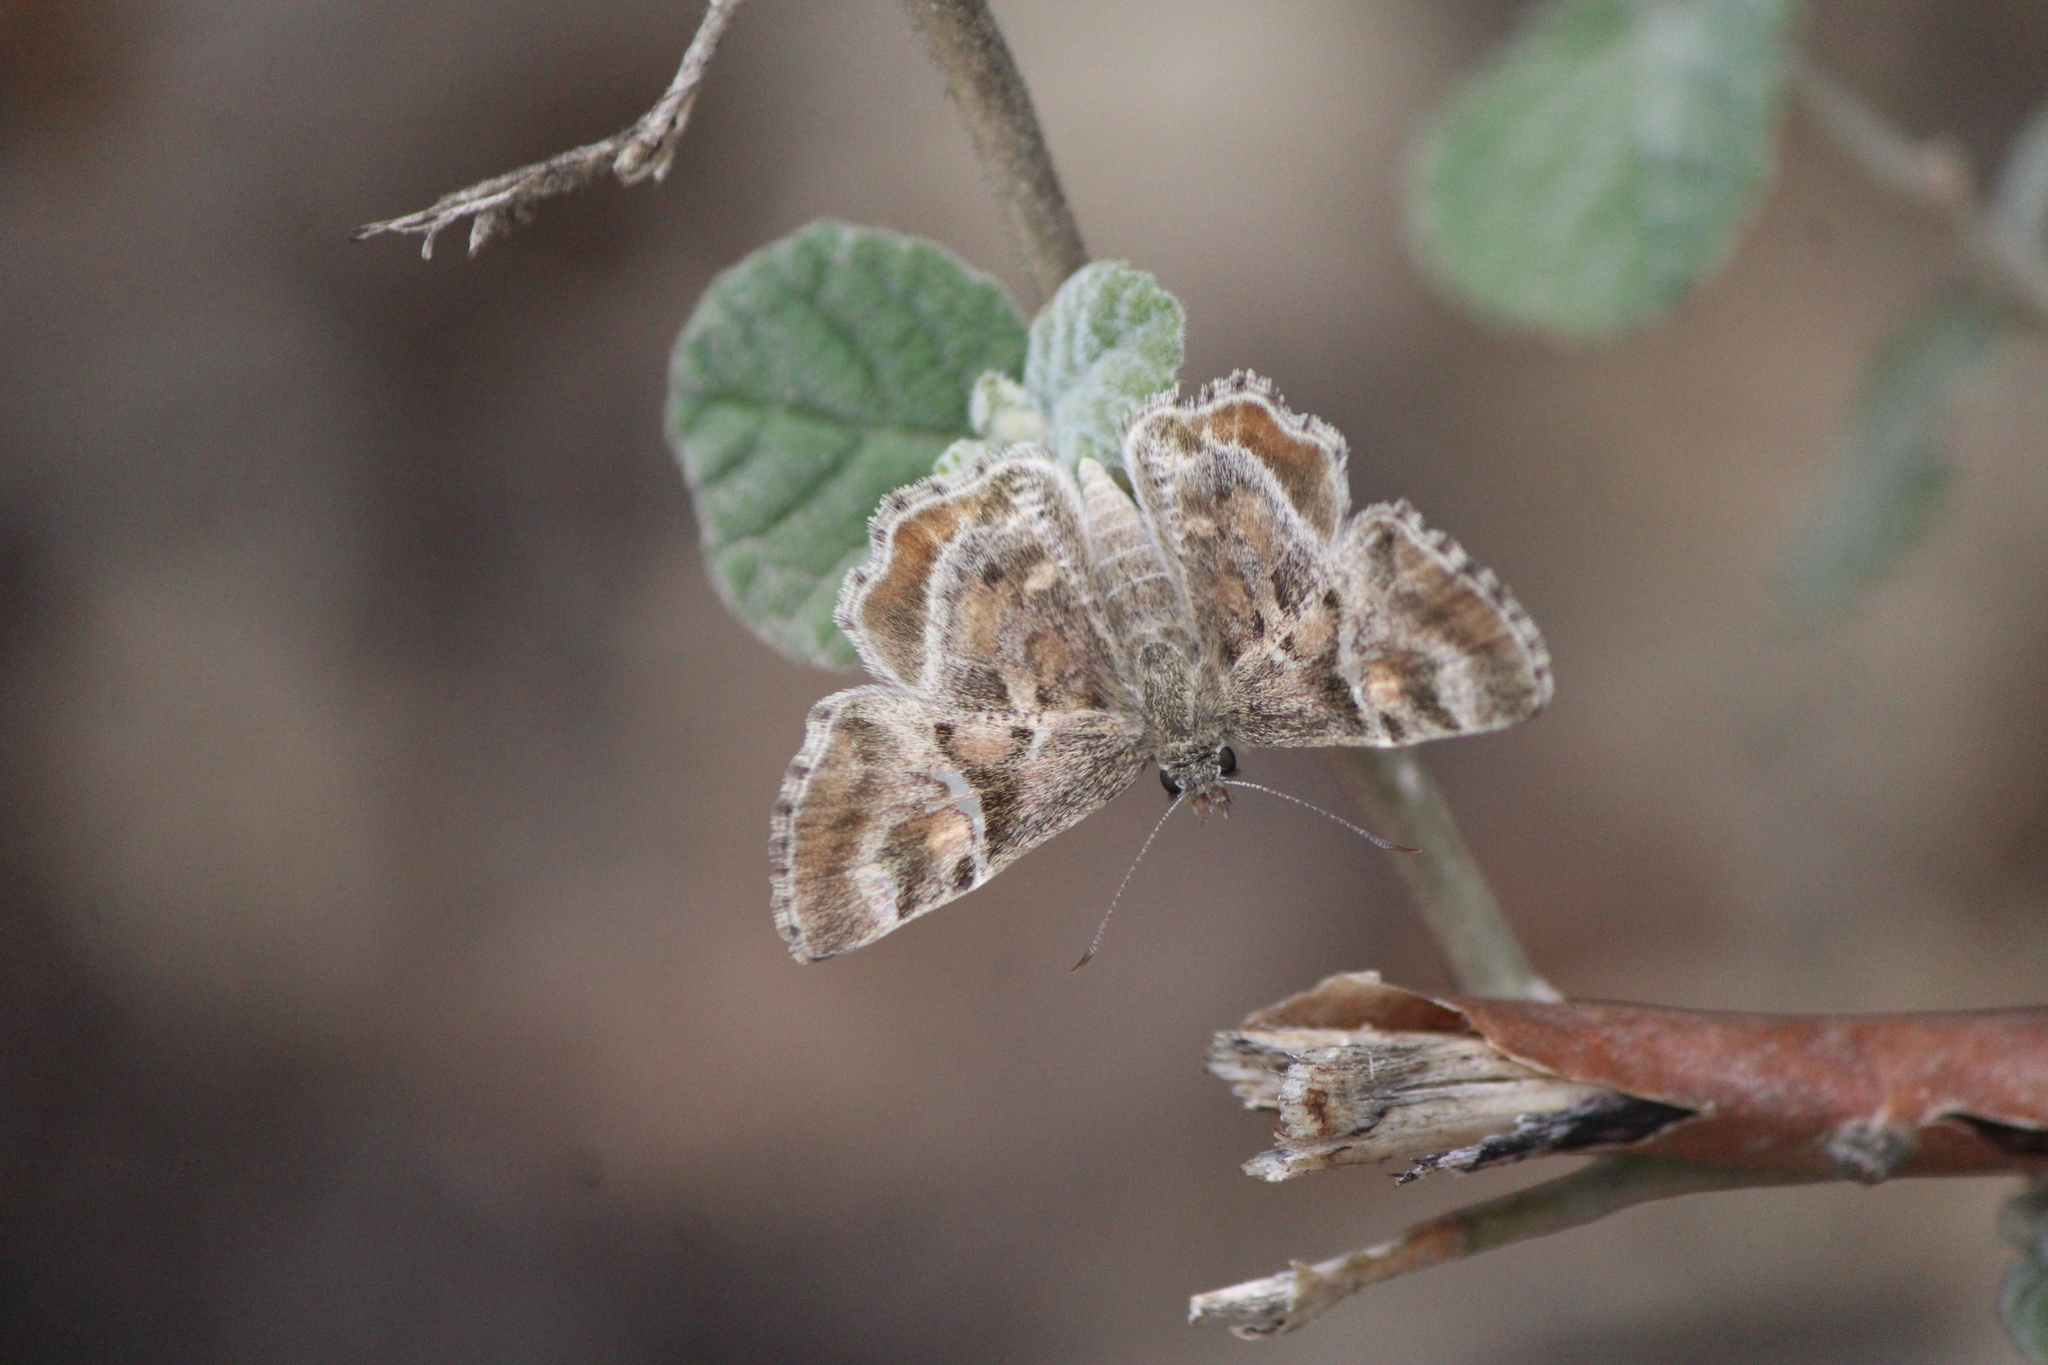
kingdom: Animalia
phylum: Arthropoda
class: Insecta
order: Lepidoptera
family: Hesperiidae
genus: Systasea
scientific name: Systasea pulverulenta
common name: Texas powdered skipper
